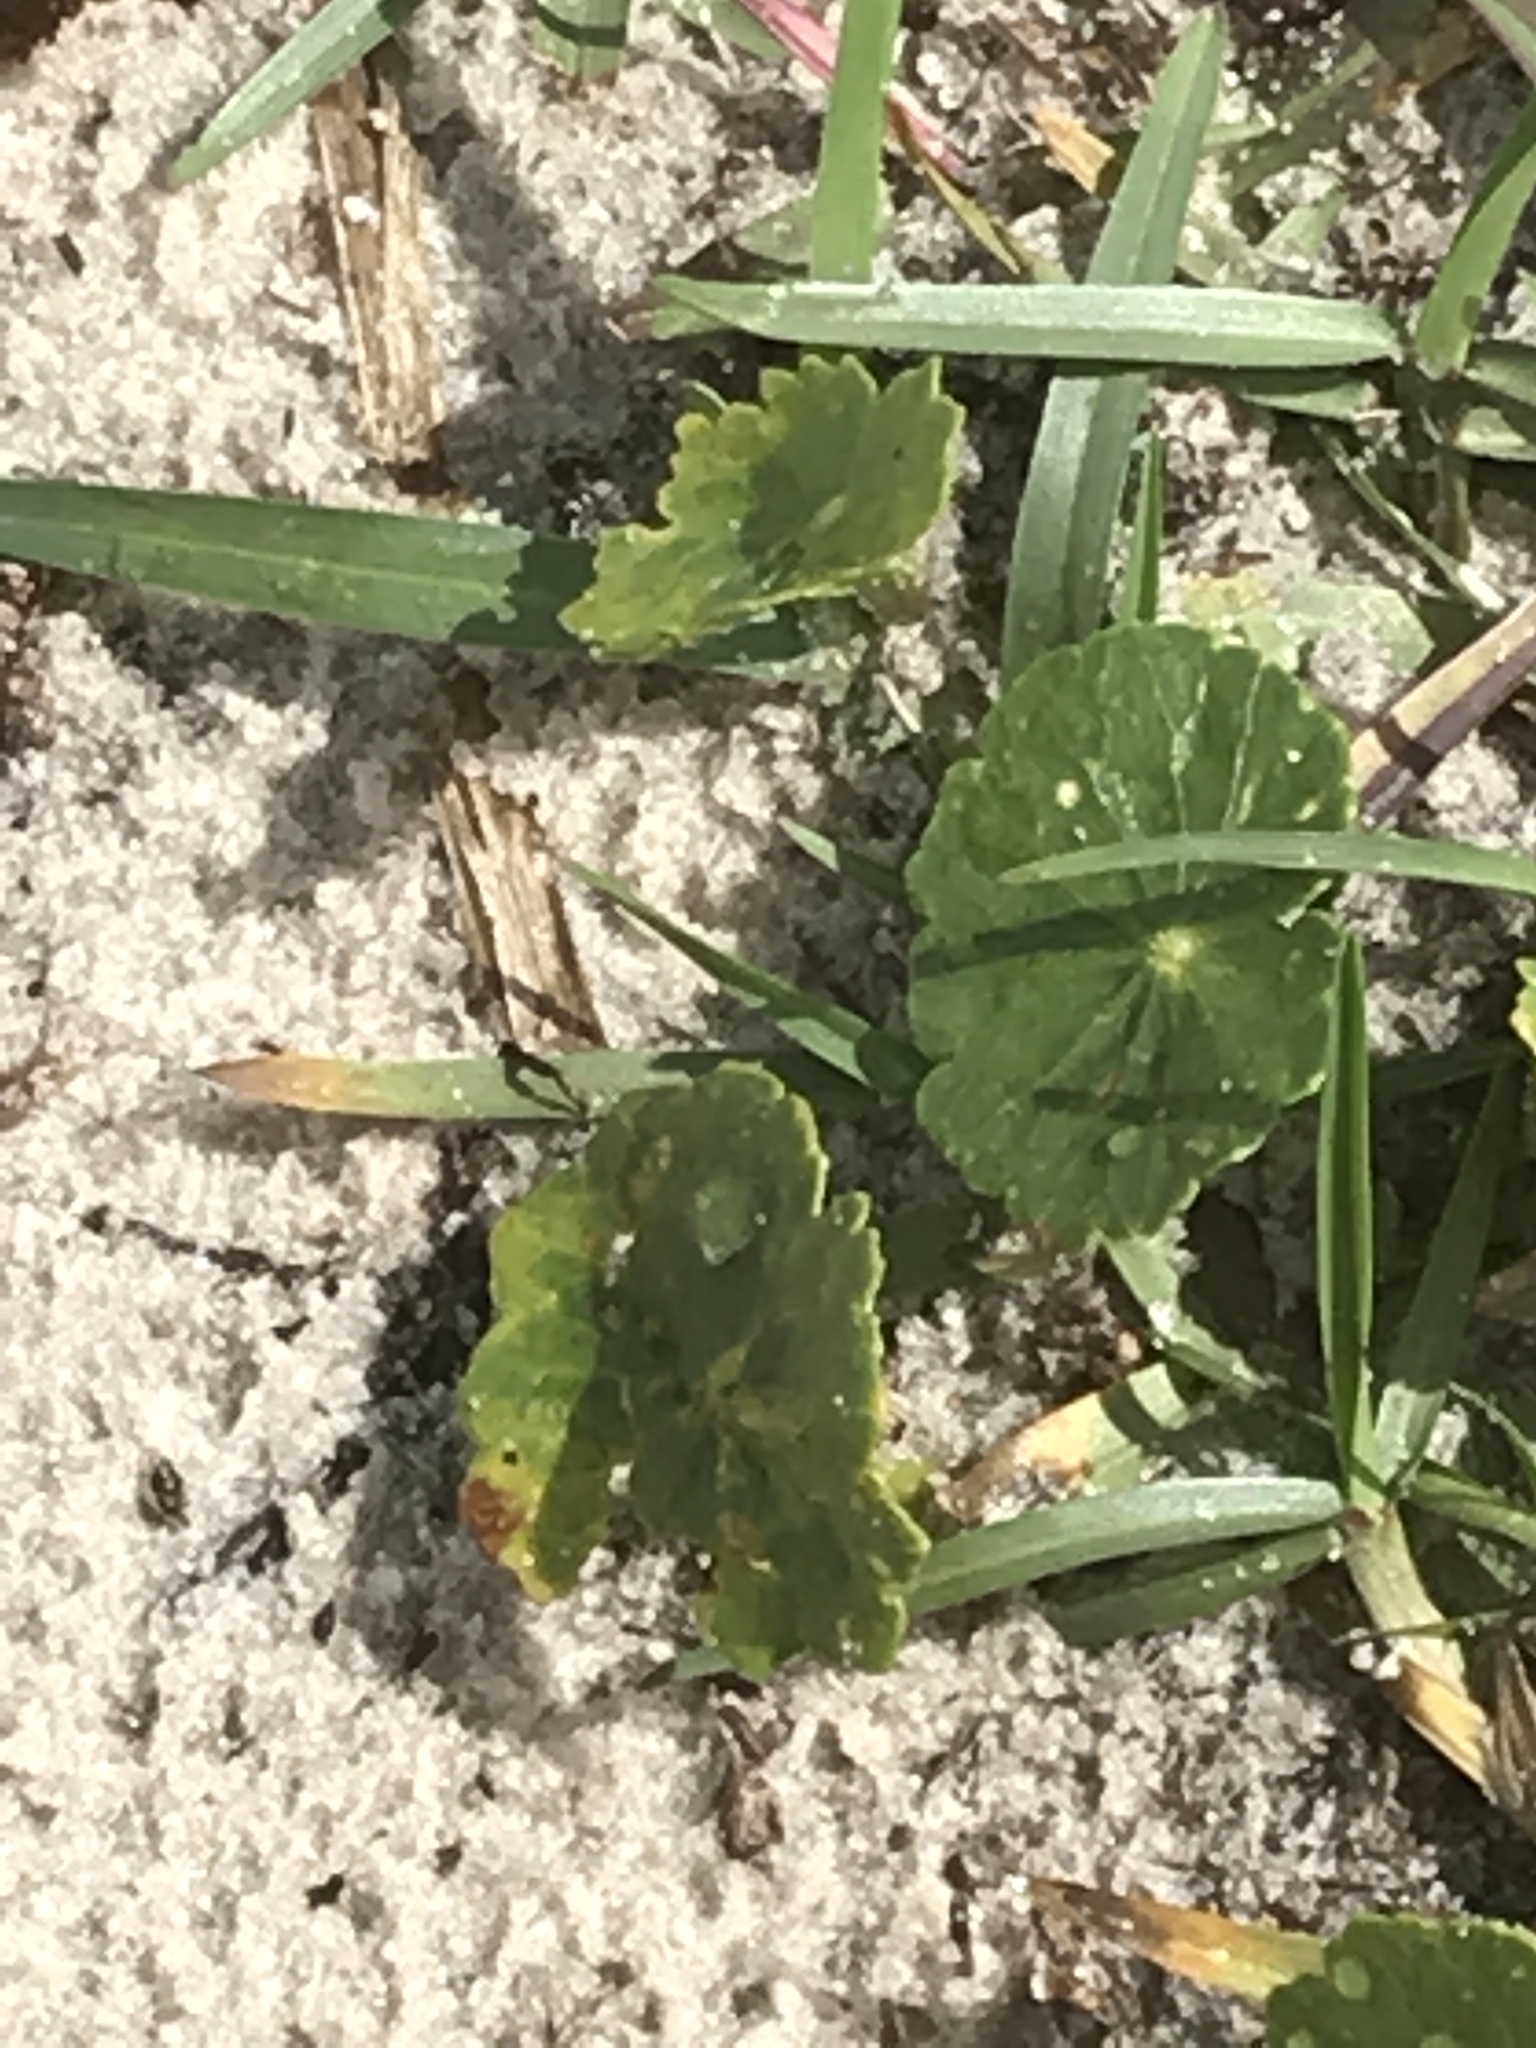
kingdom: Plantae
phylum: Tracheophyta
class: Magnoliopsida
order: Apiales
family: Araliaceae
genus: Hydrocotyle
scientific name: Hydrocotyle bonariensis
